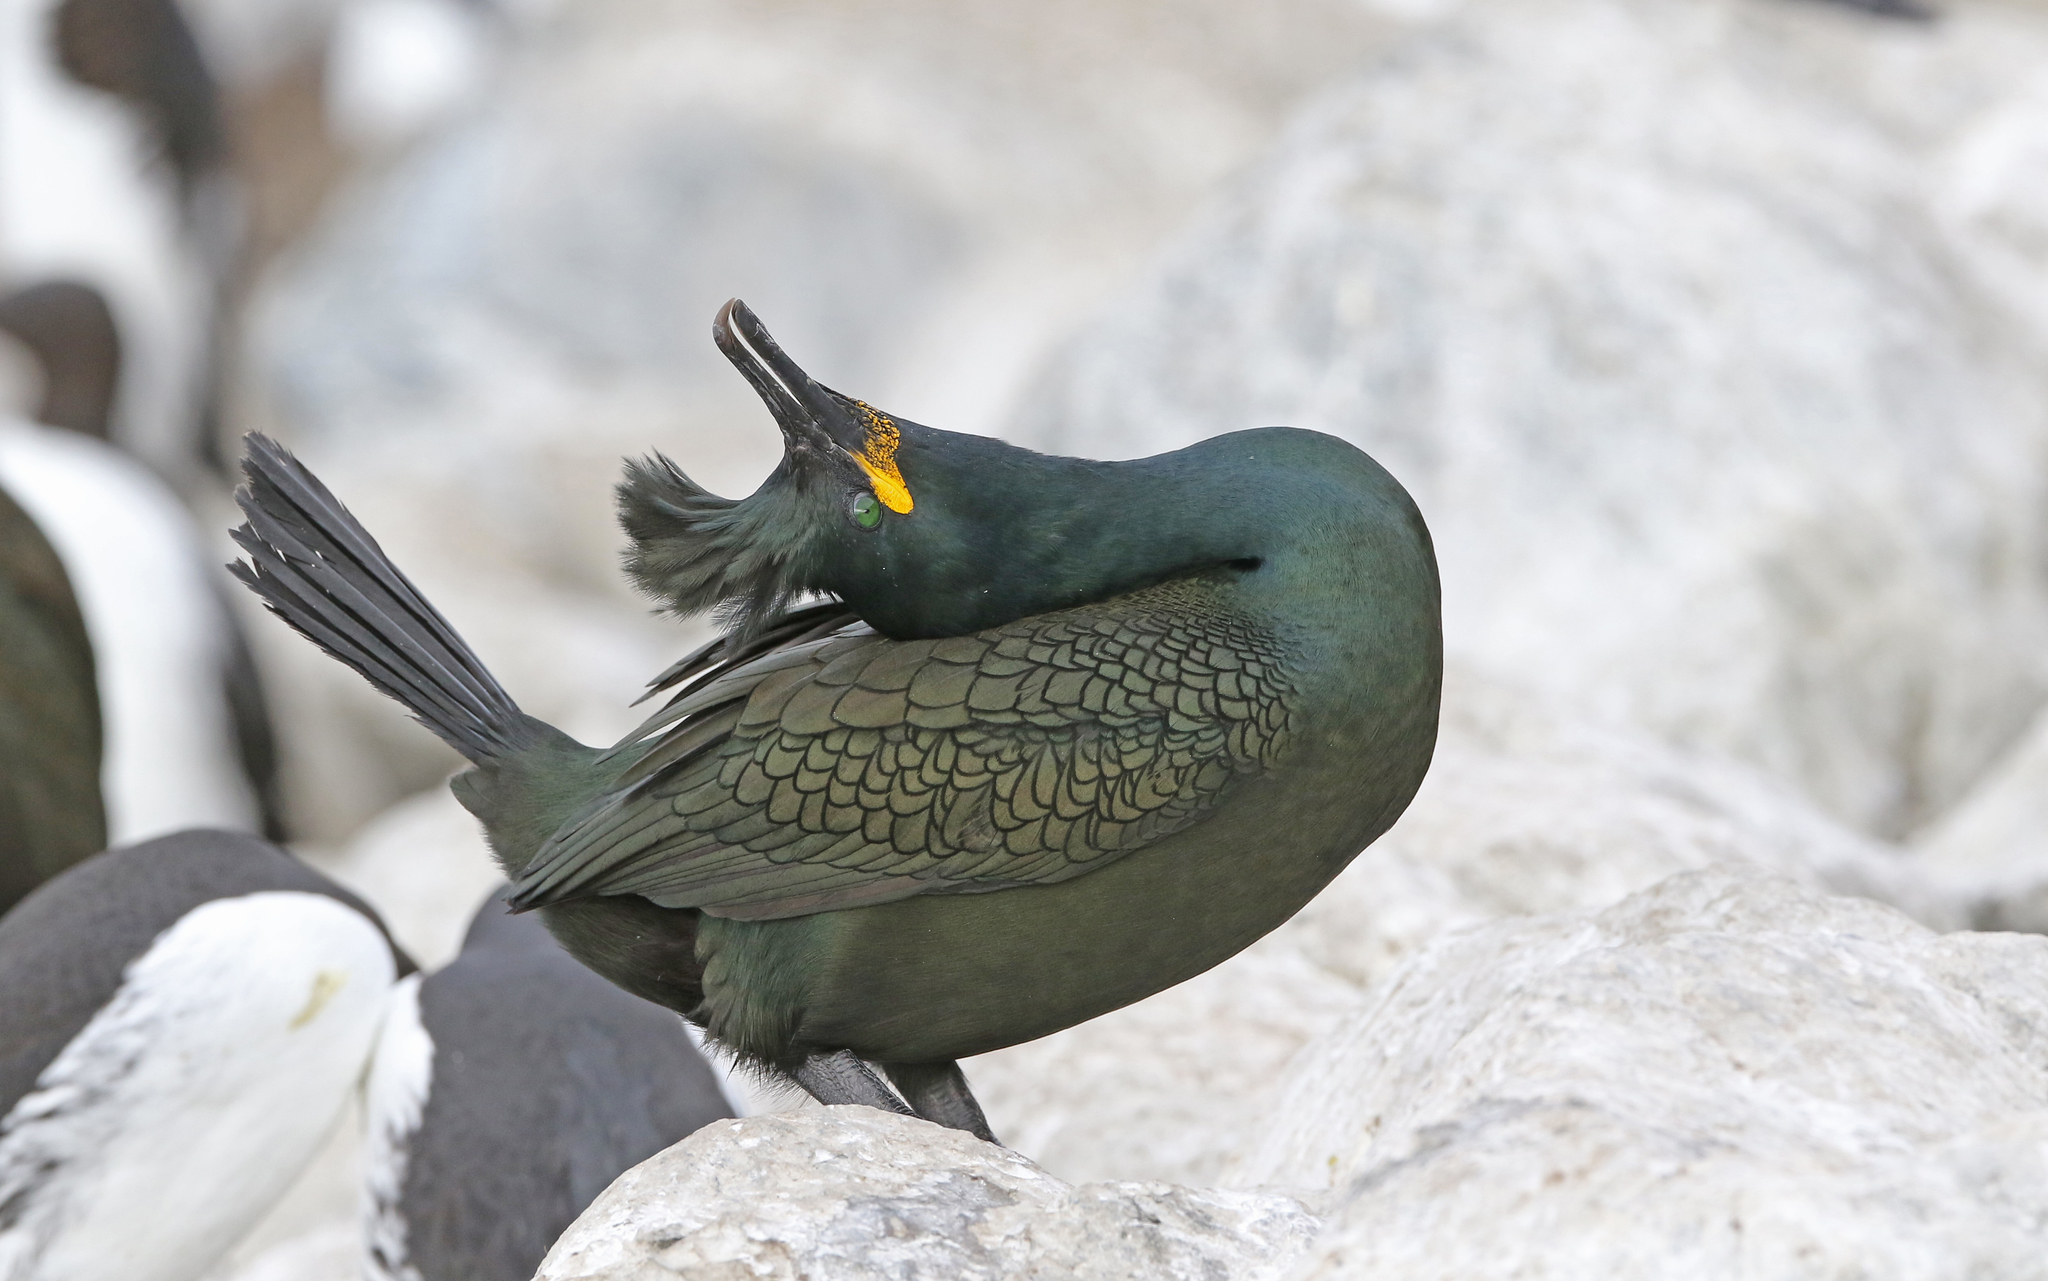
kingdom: Animalia
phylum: Chordata
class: Aves
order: Suliformes
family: Phalacrocoracidae
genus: Phalacrocorax
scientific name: Phalacrocorax aristotelis
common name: European shag
